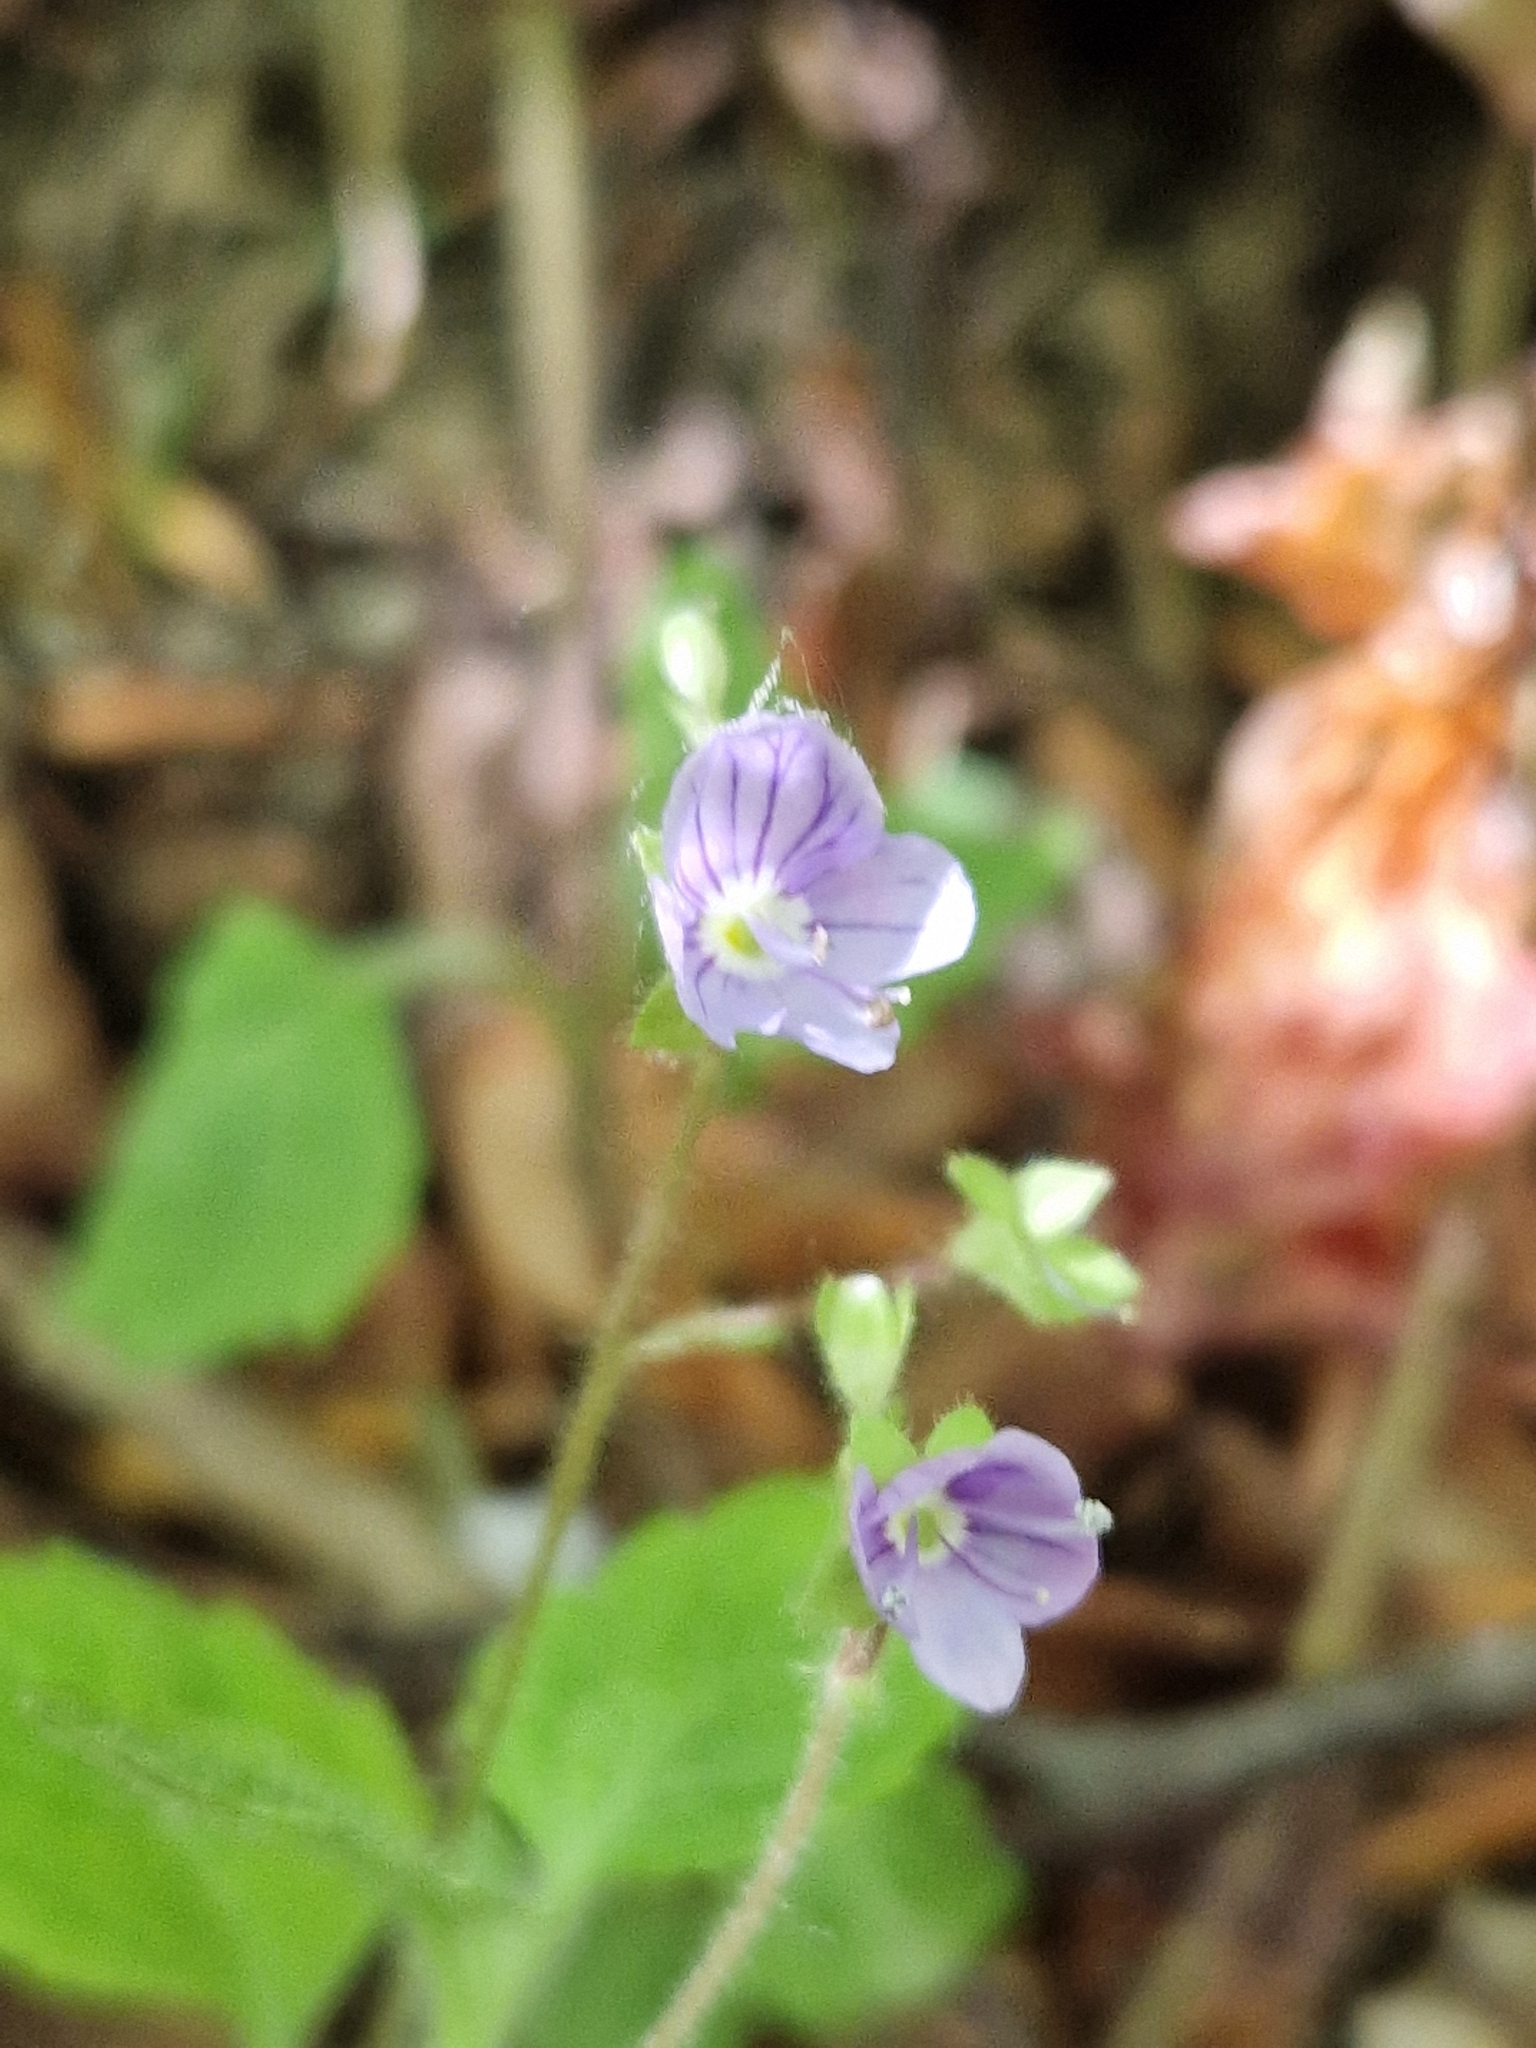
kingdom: Plantae
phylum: Tracheophyta
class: Magnoliopsida
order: Lamiales
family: Plantaginaceae
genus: Veronica
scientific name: Veronica montana
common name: Wood speedwell
